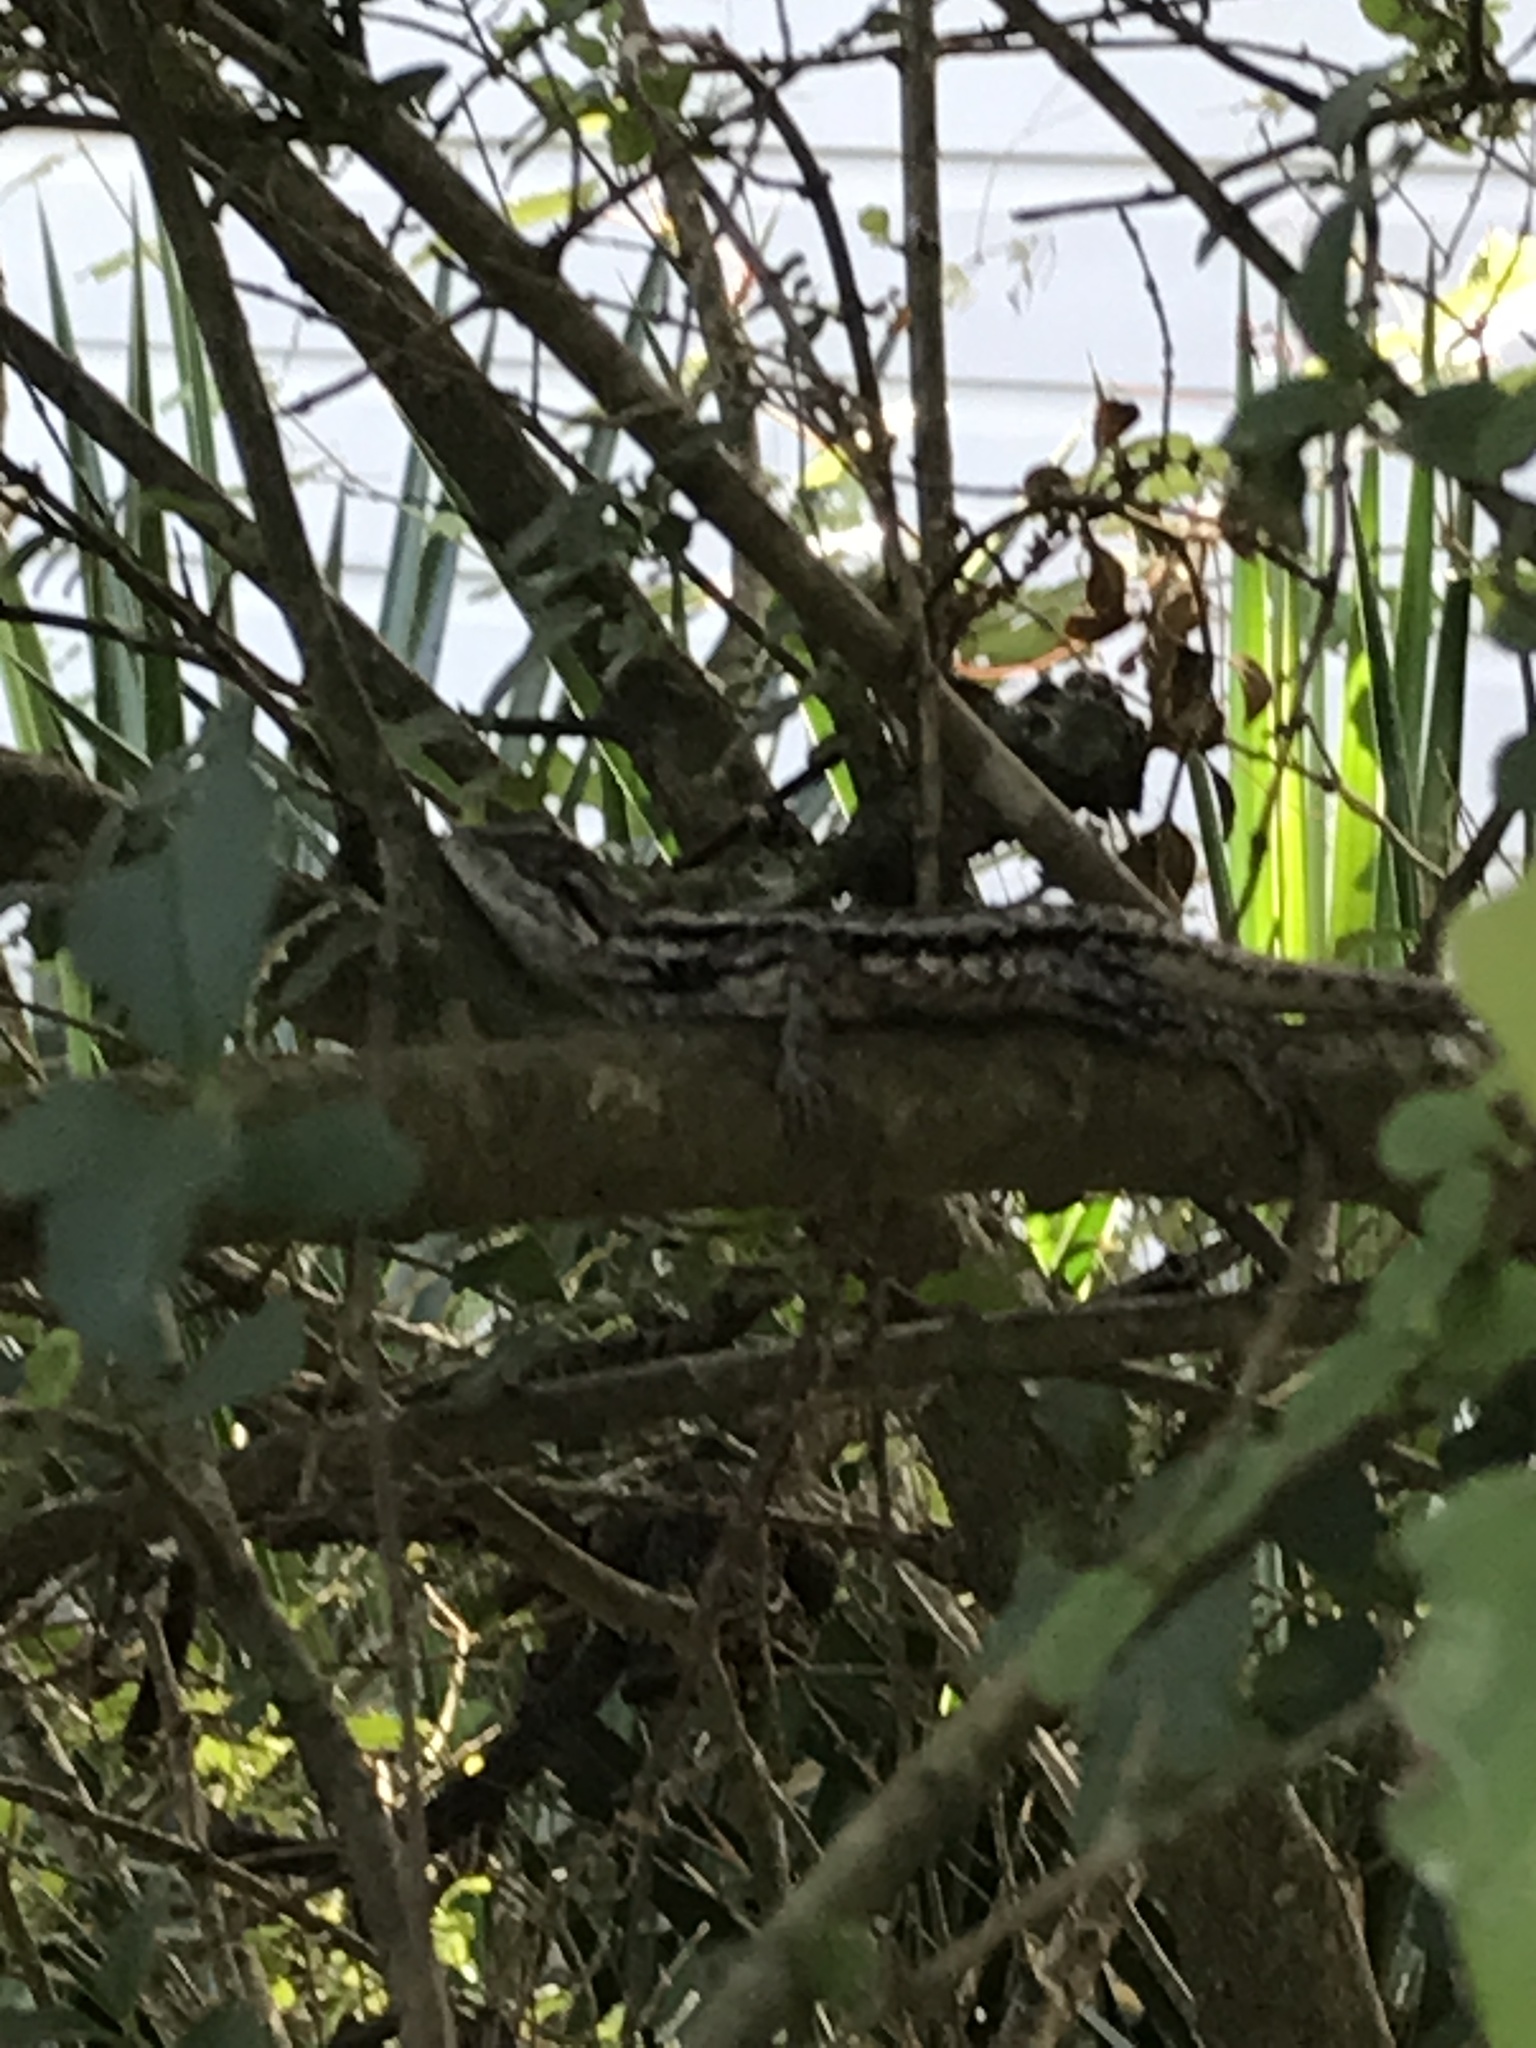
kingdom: Animalia
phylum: Chordata
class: Squamata
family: Phrynosomatidae
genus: Sceloporus
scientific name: Sceloporus olivaceus
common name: Texas spiny lizard
